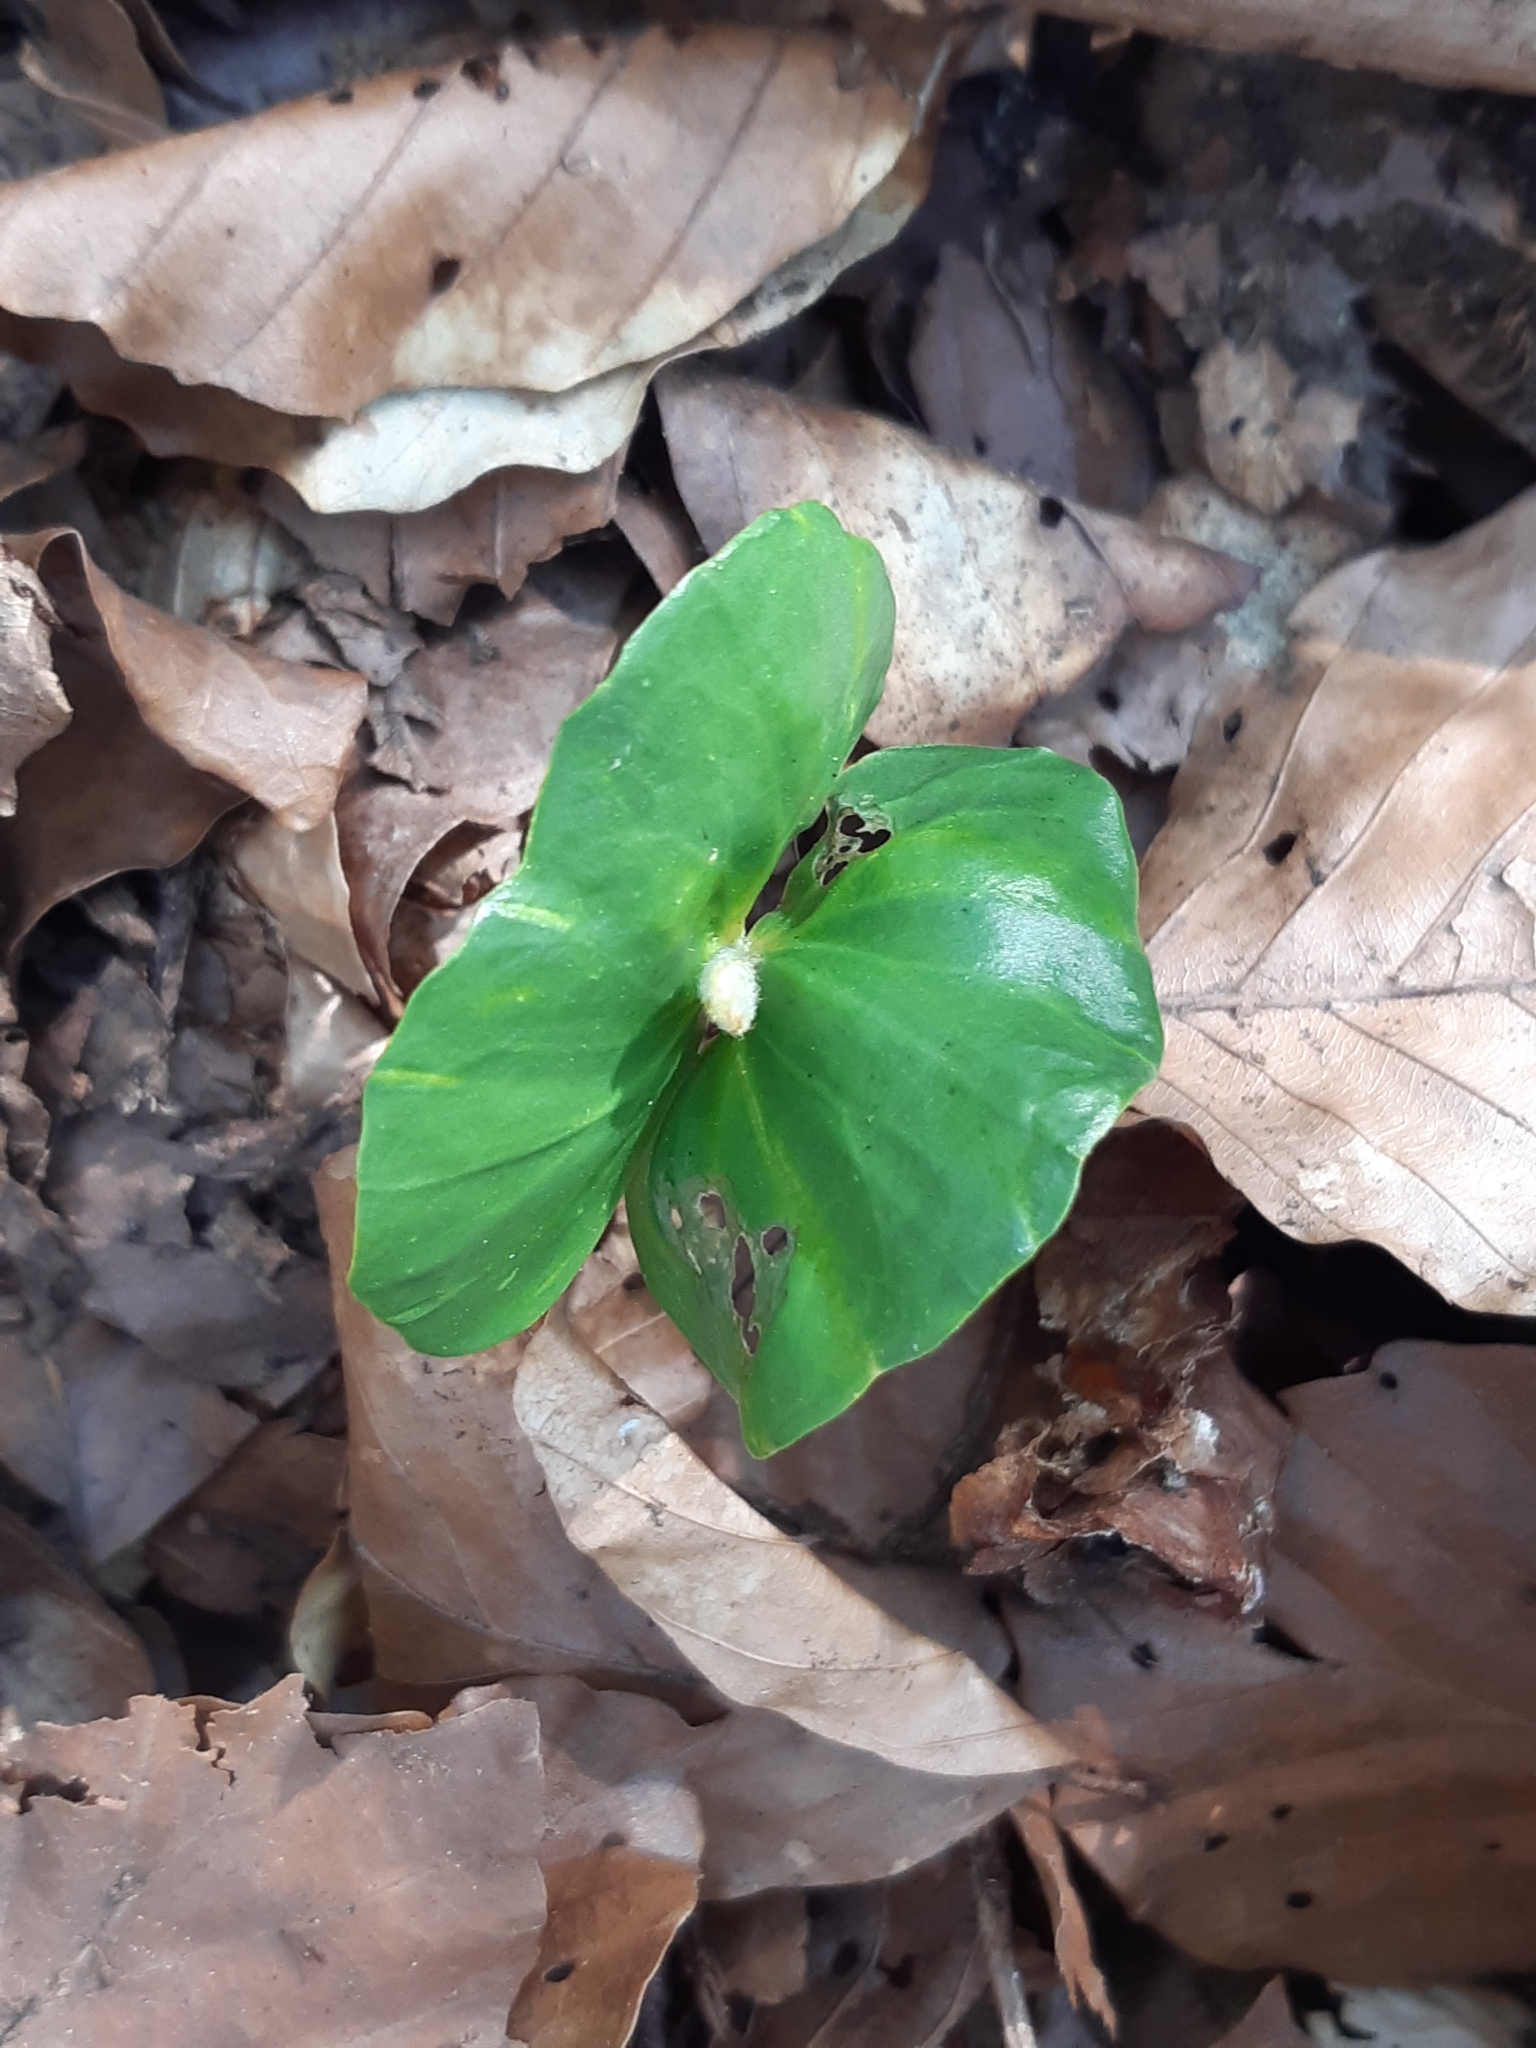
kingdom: Plantae
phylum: Tracheophyta
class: Magnoliopsida
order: Fagales
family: Fagaceae
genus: Fagus
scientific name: Fagus sylvatica
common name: Beech
